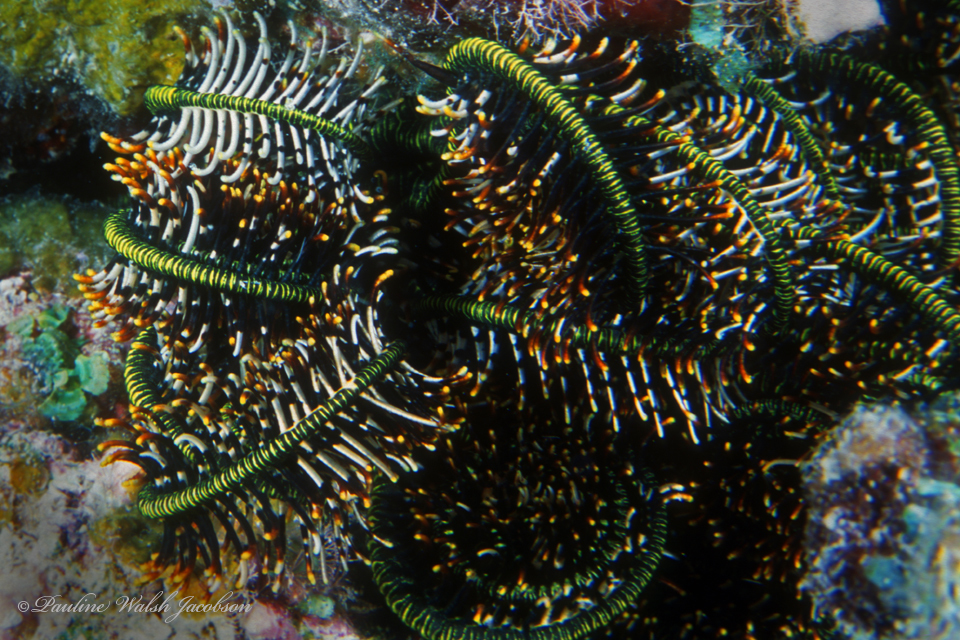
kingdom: Animalia
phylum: Echinodermata
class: Crinoidea
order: Comatulida
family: Comatulidae
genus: Comaster
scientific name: Comaster schlegelii
